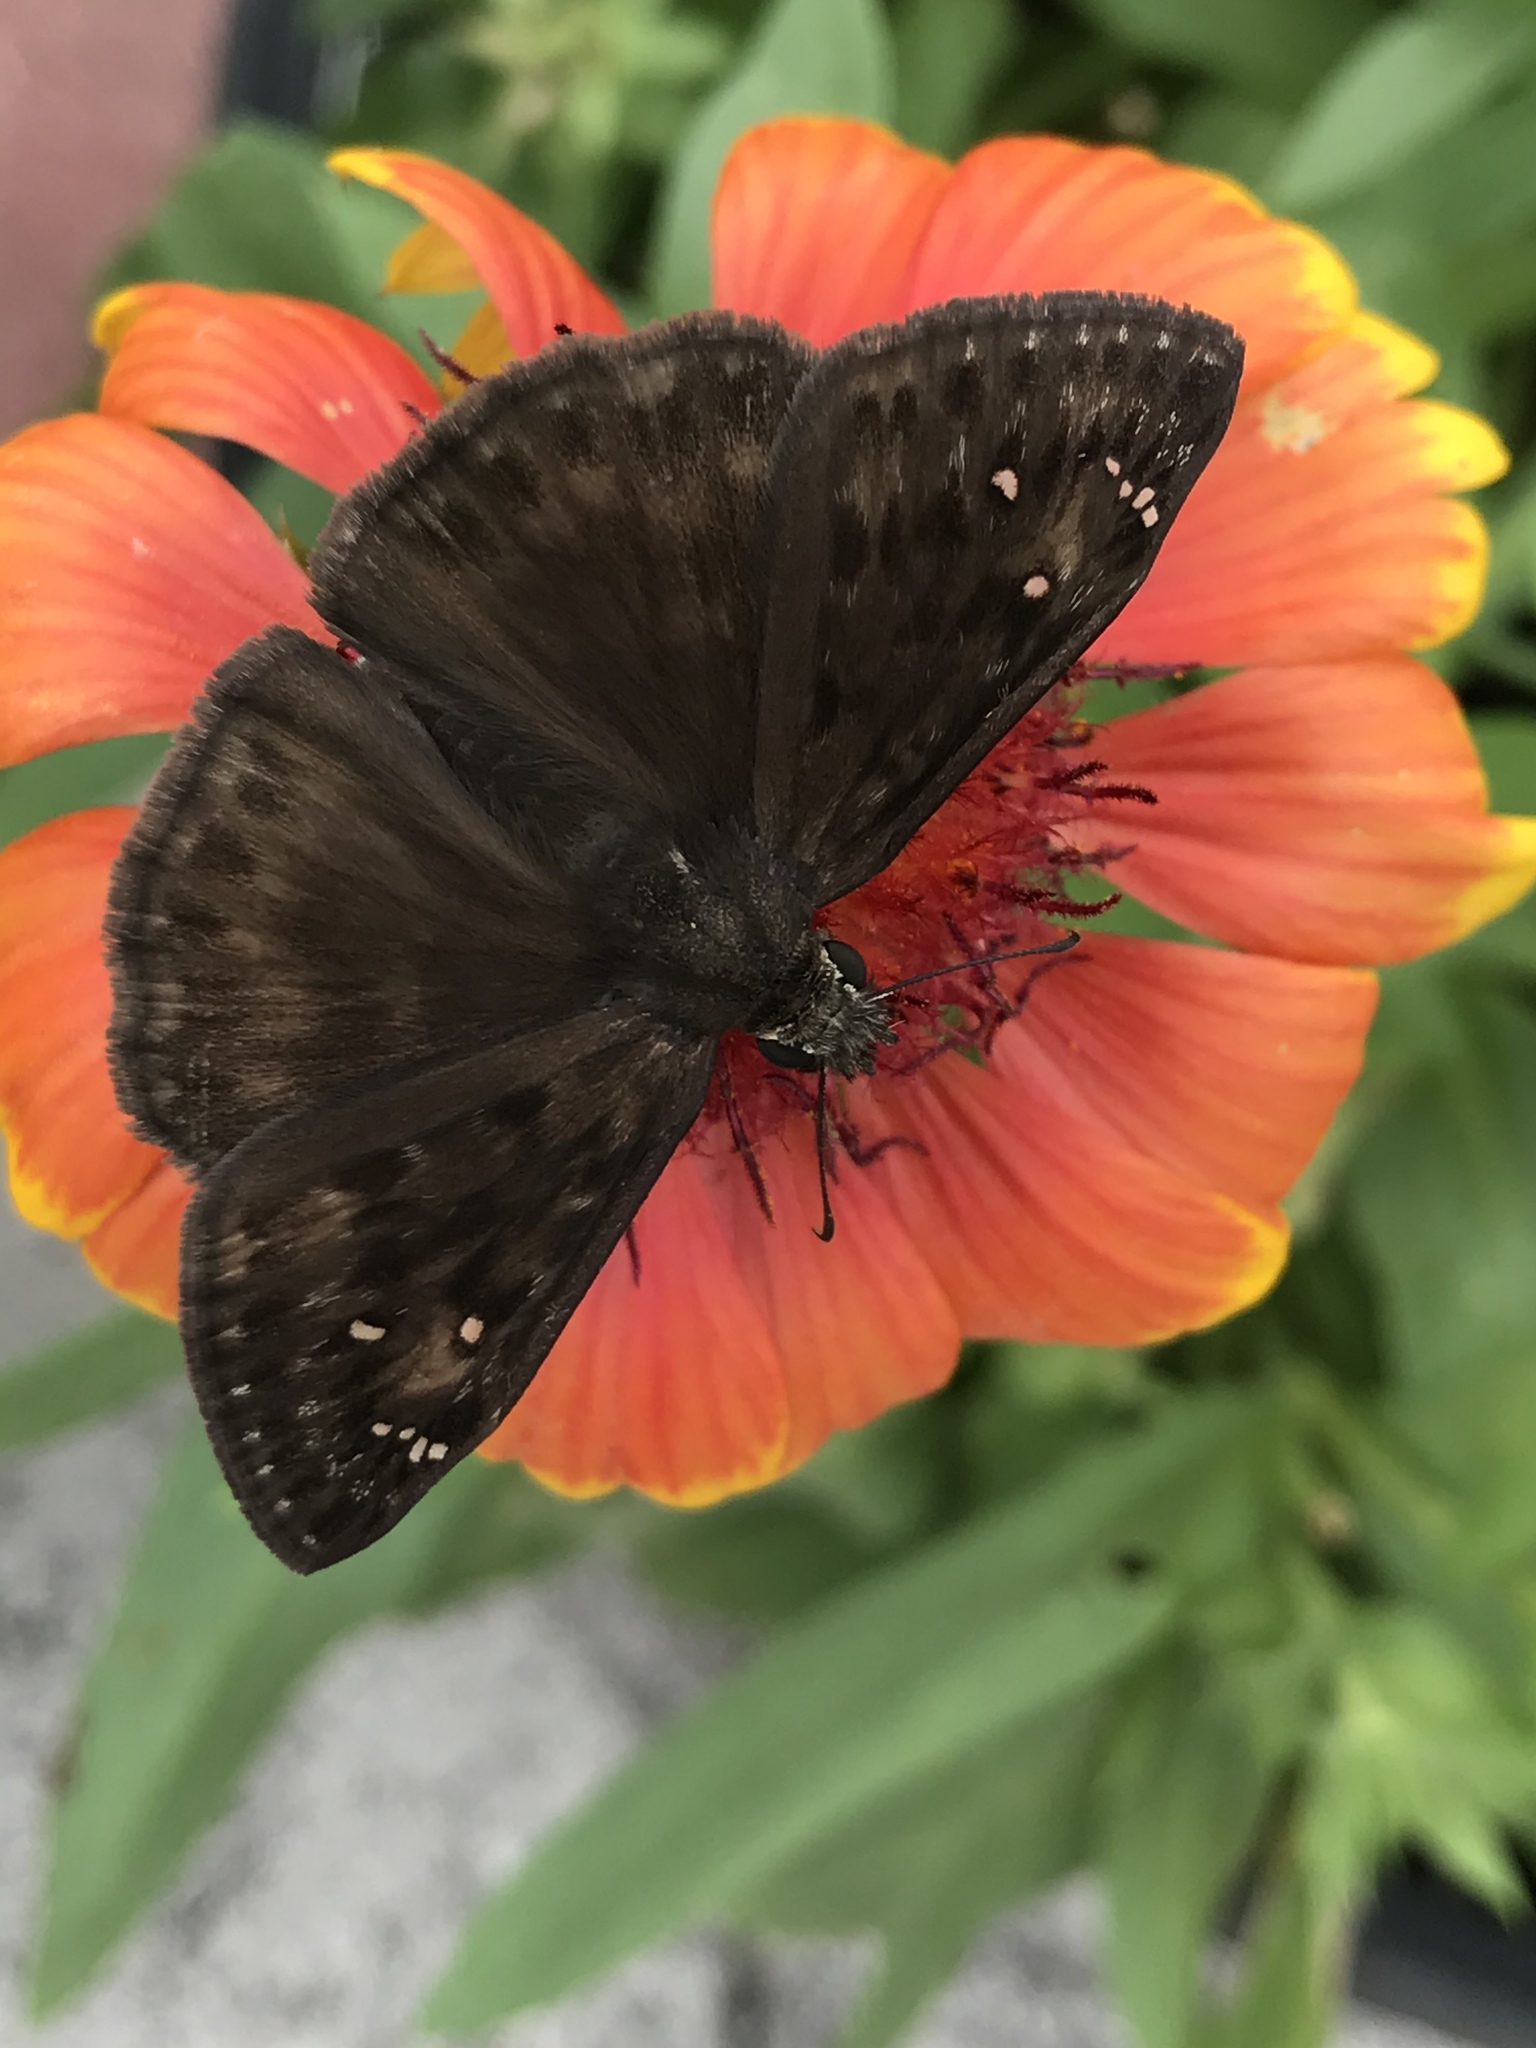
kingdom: Animalia
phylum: Arthropoda
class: Insecta
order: Lepidoptera
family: Hesperiidae
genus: Erynnis
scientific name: Erynnis horatius
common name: Horace's duskywing
